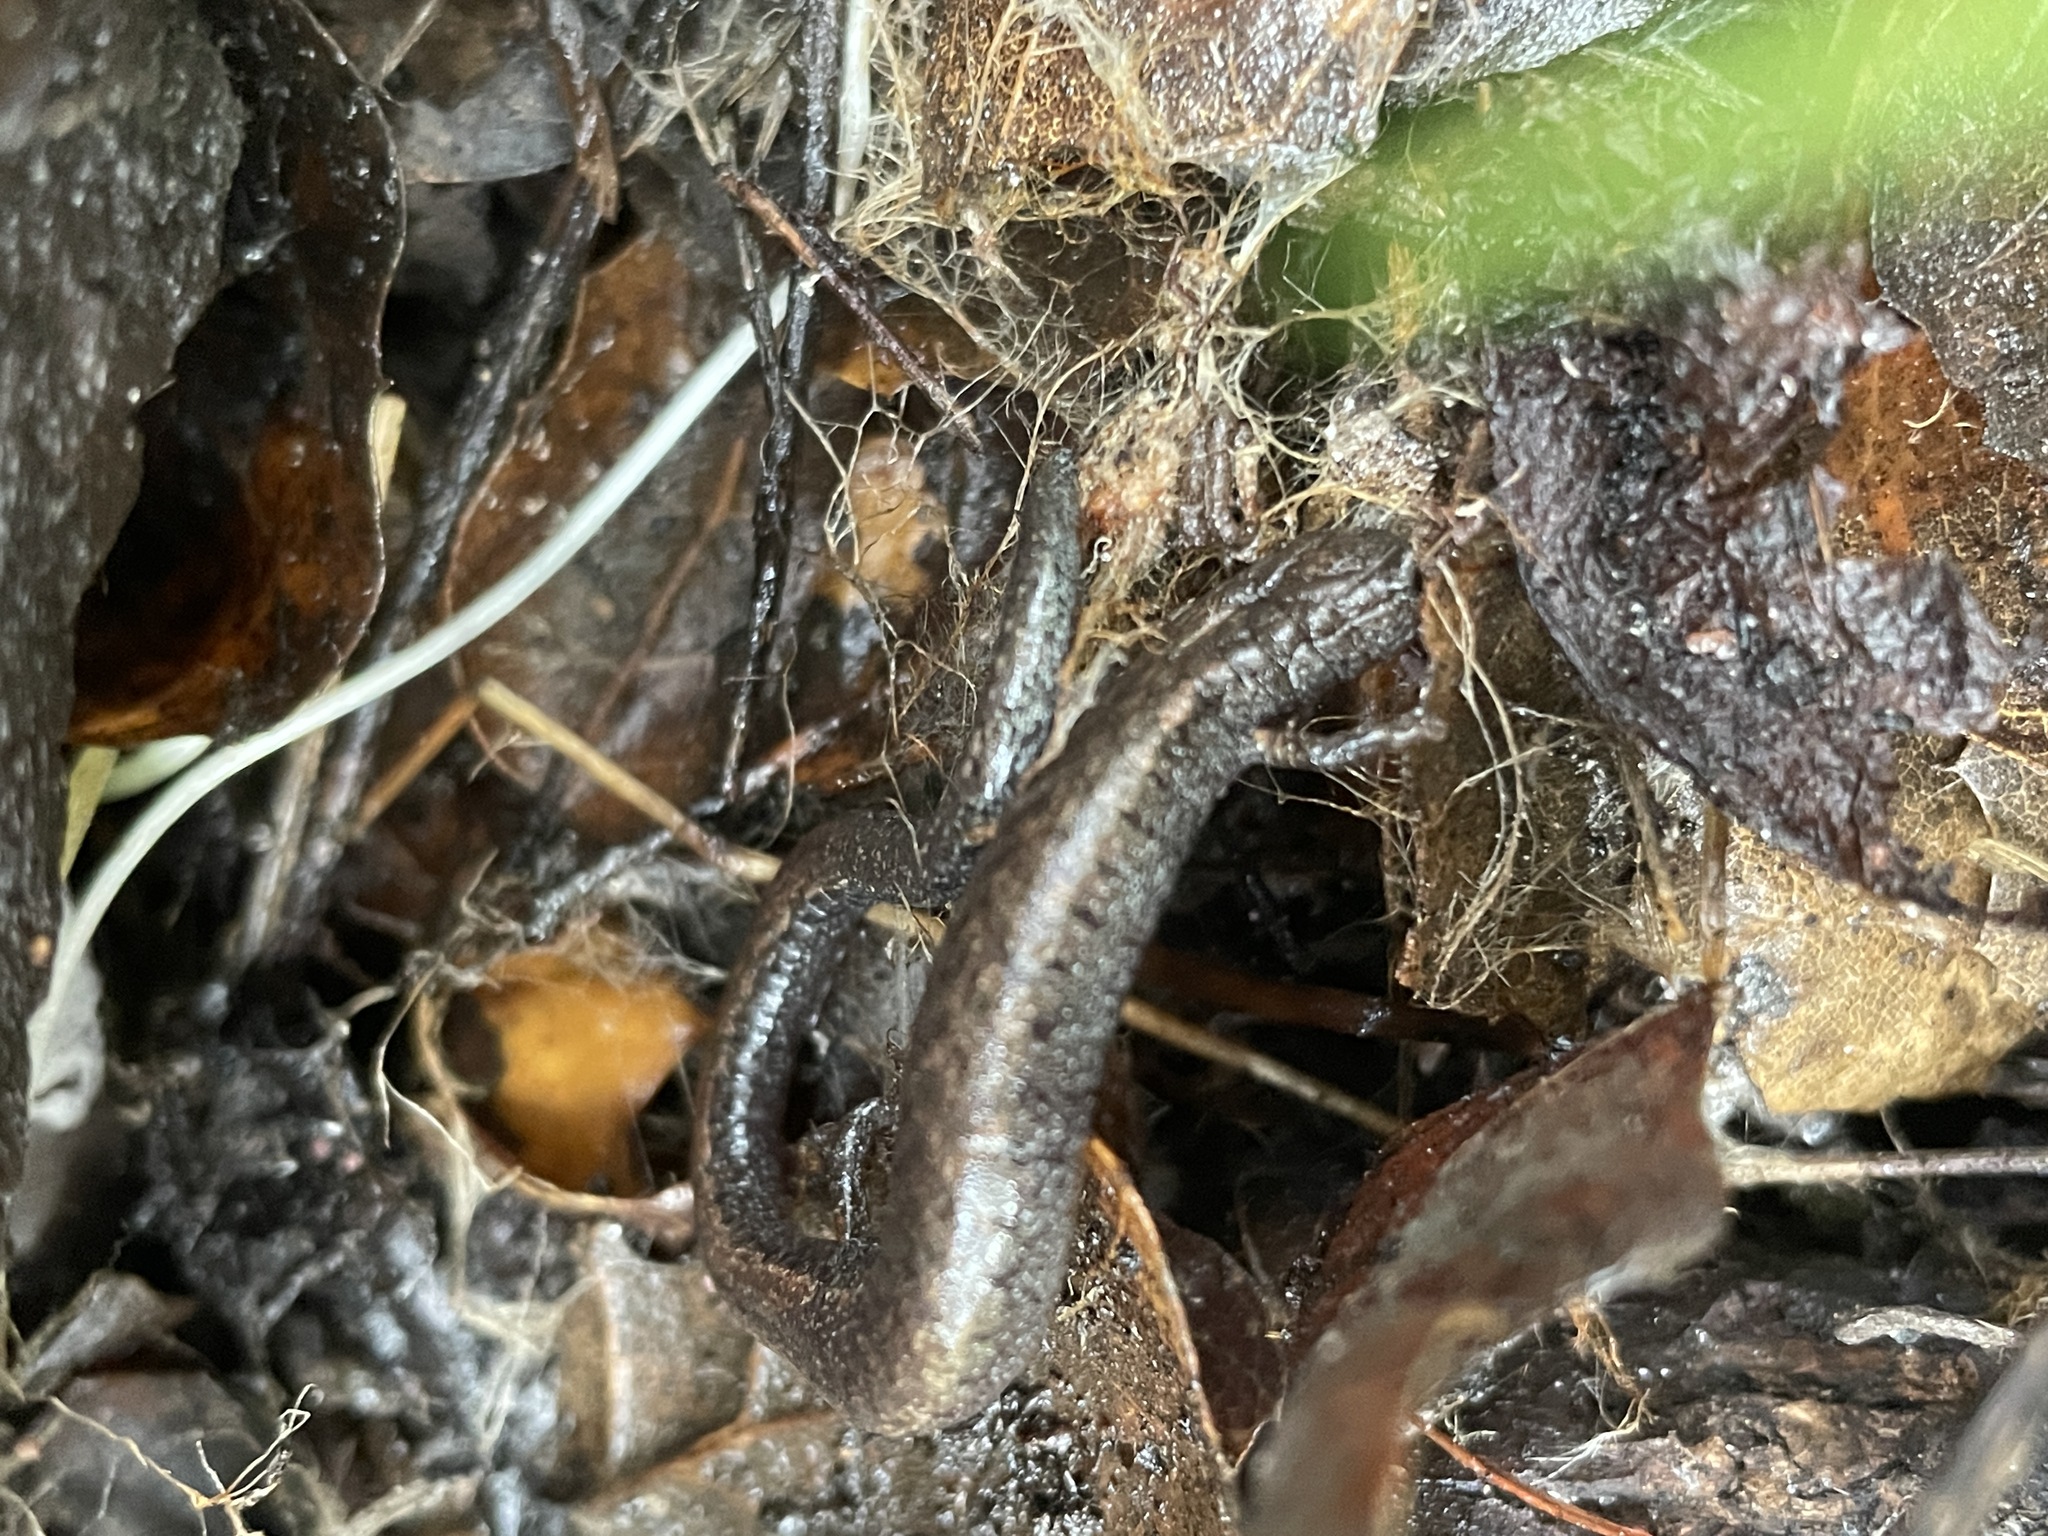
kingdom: Animalia
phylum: Chordata
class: Amphibia
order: Caudata
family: Plethodontidae
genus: Batrachoseps
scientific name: Batrachoseps attenuatus
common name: California slender salamander
